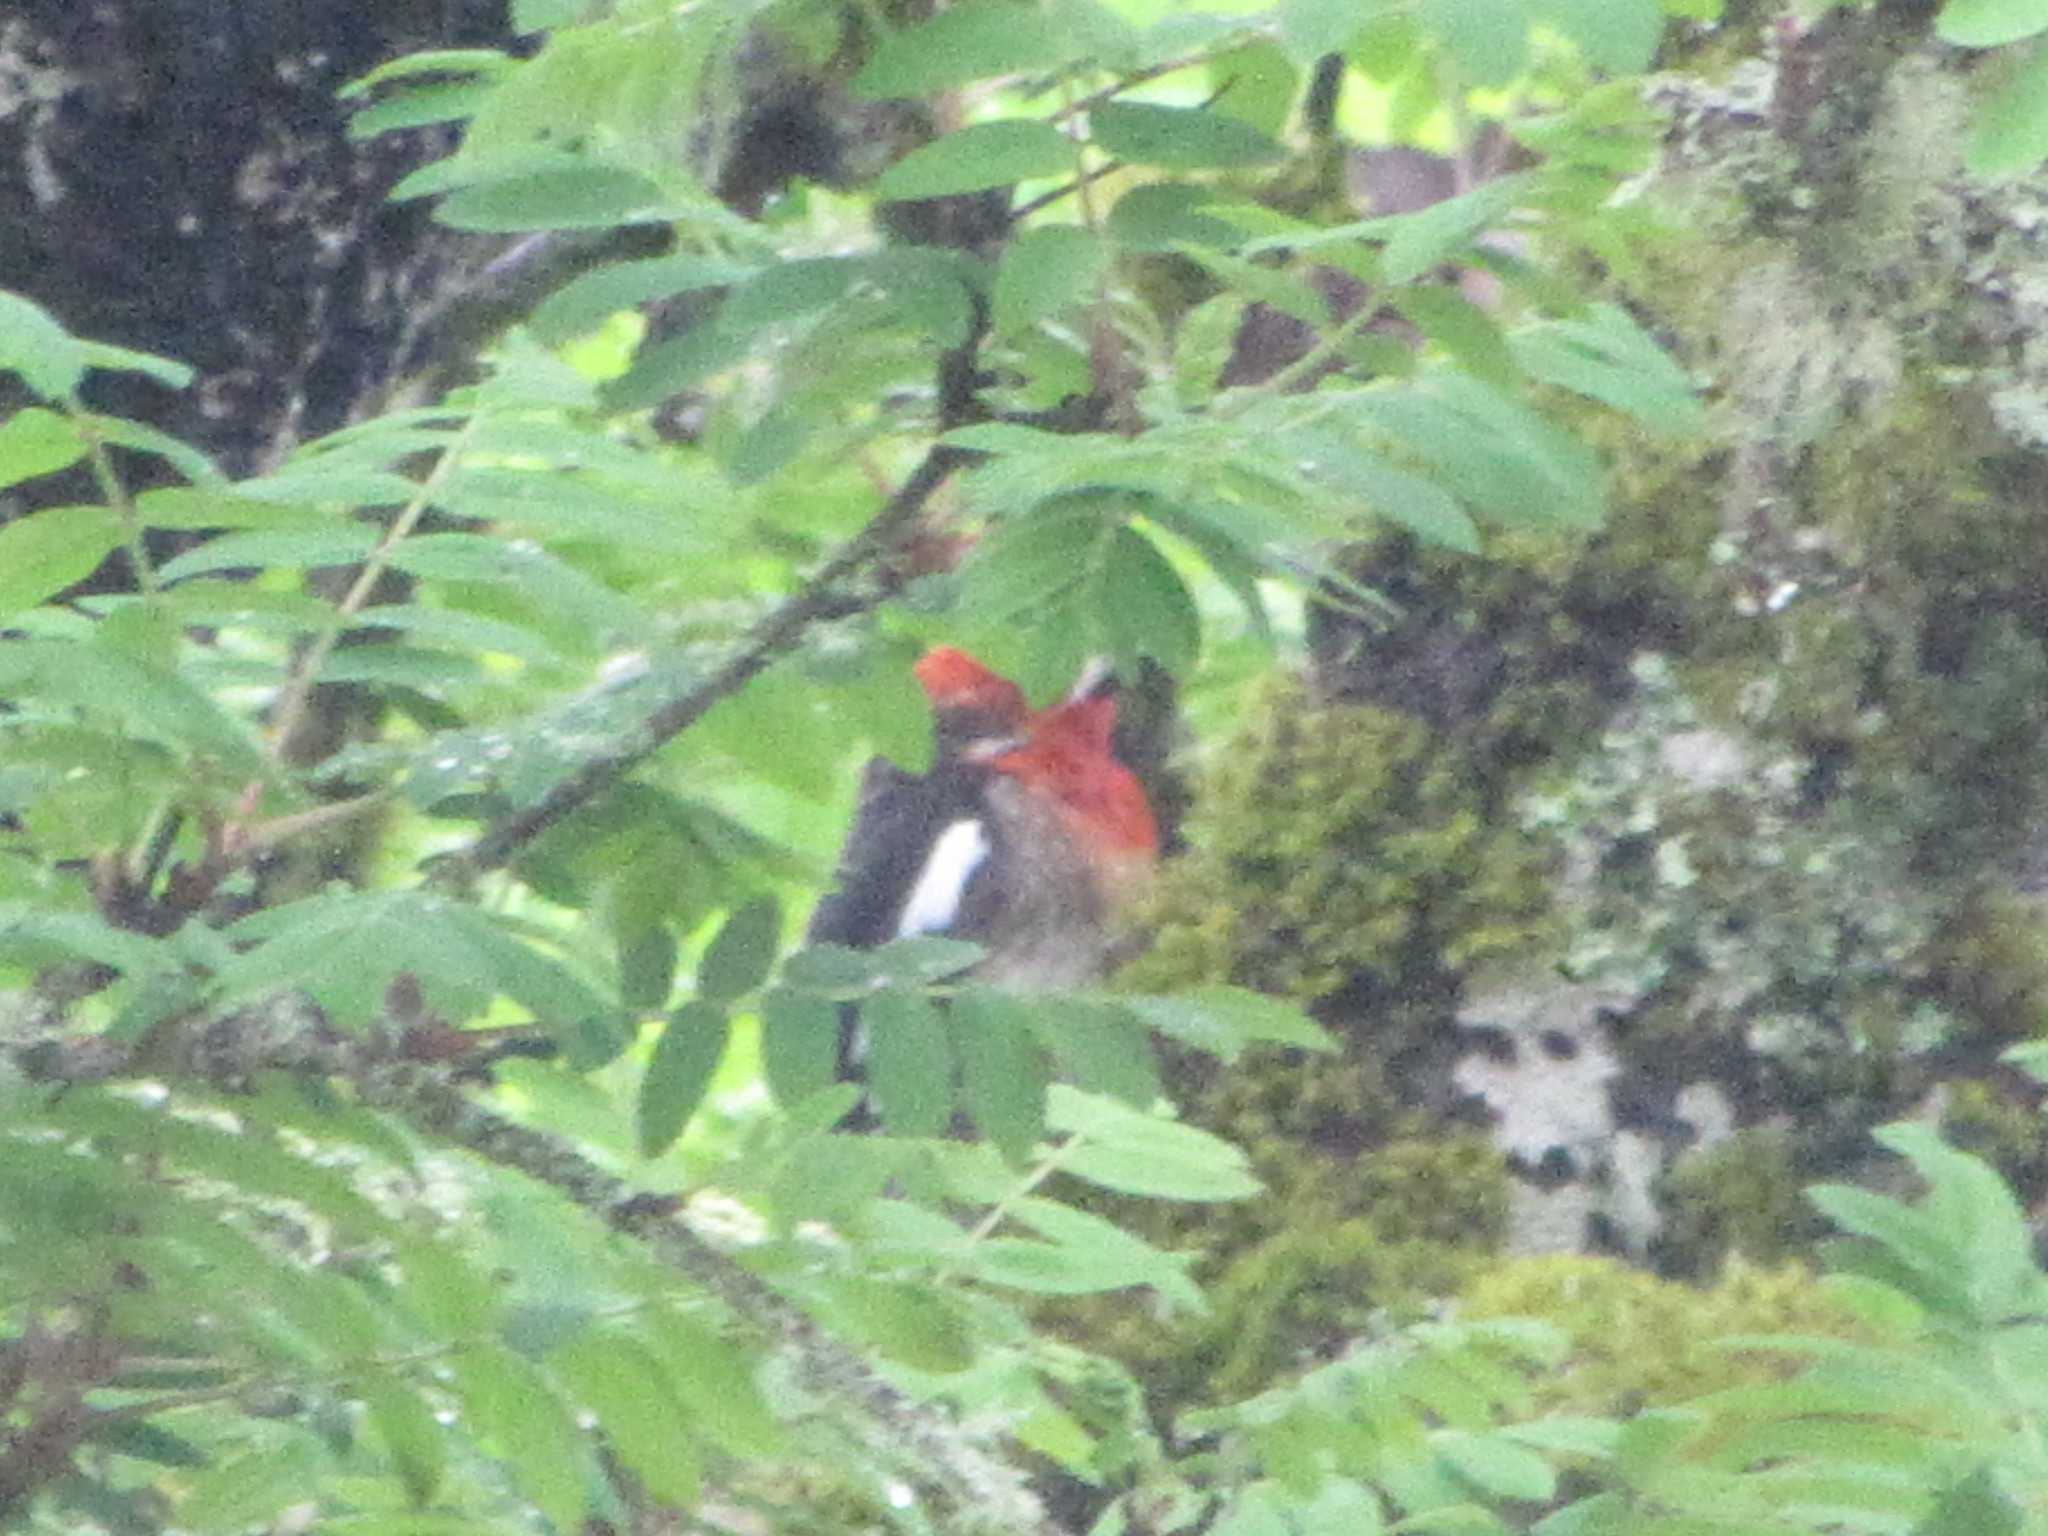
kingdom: Animalia
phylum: Chordata
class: Aves
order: Piciformes
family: Picidae
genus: Sphyrapicus
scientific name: Sphyrapicus ruber
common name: Red-breasted sapsucker
